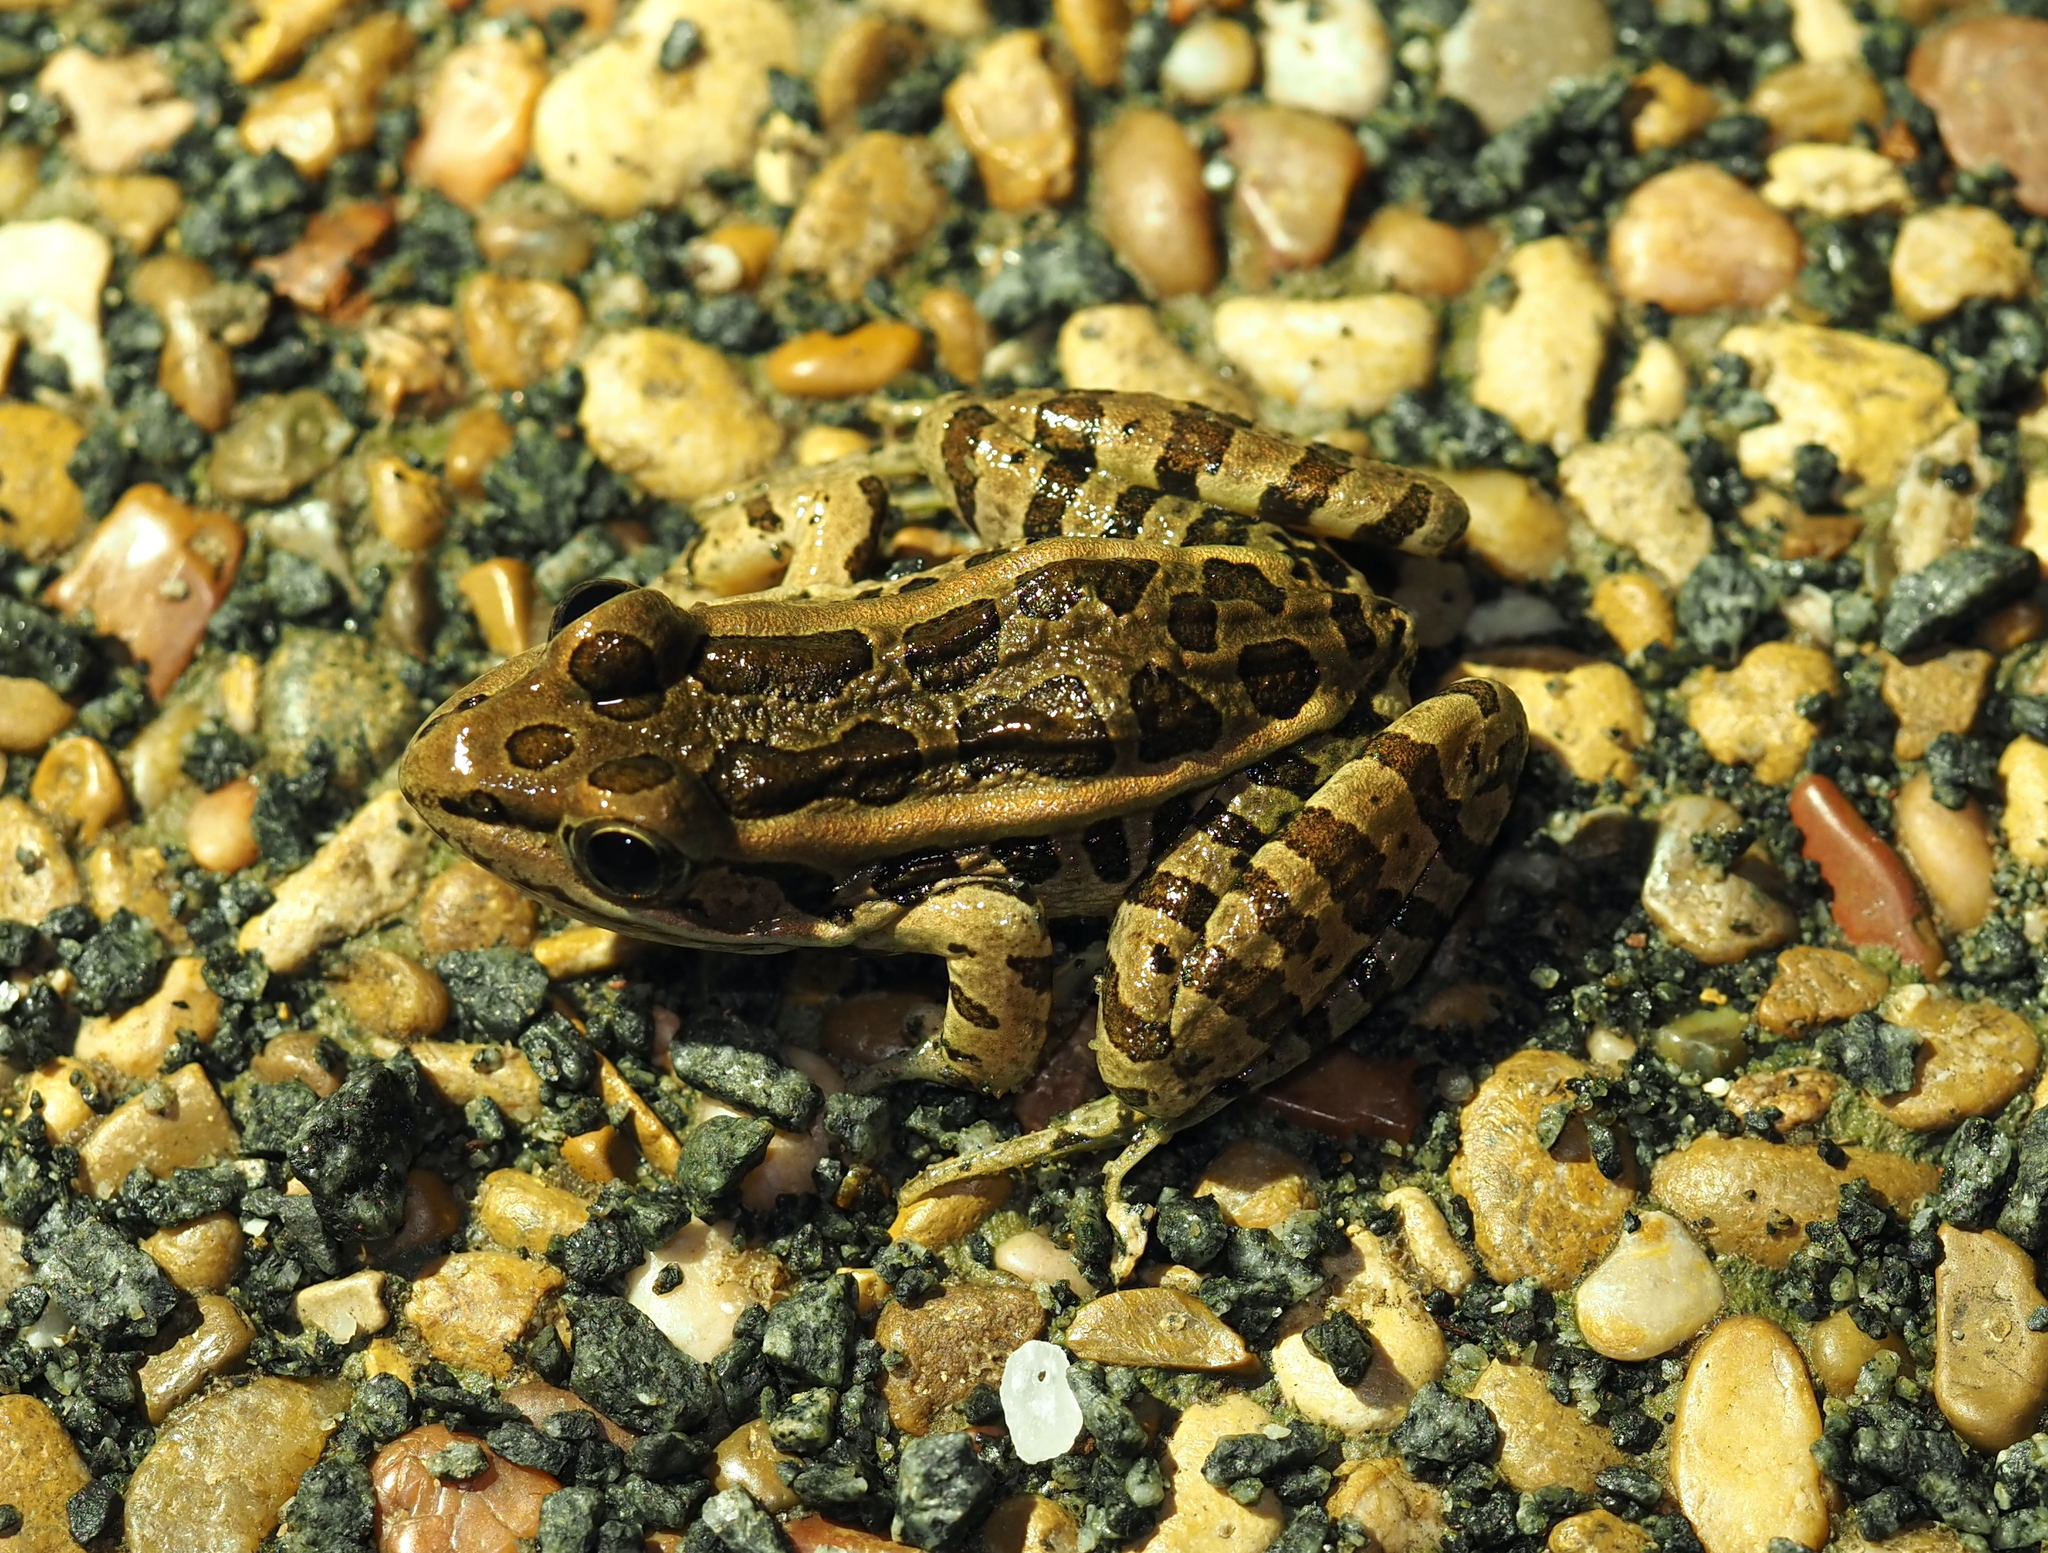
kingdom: Animalia
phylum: Chordata
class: Amphibia
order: Anura
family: Ranidae
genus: Lithobates
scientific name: Lithobates palustris
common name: Pickerel frog
